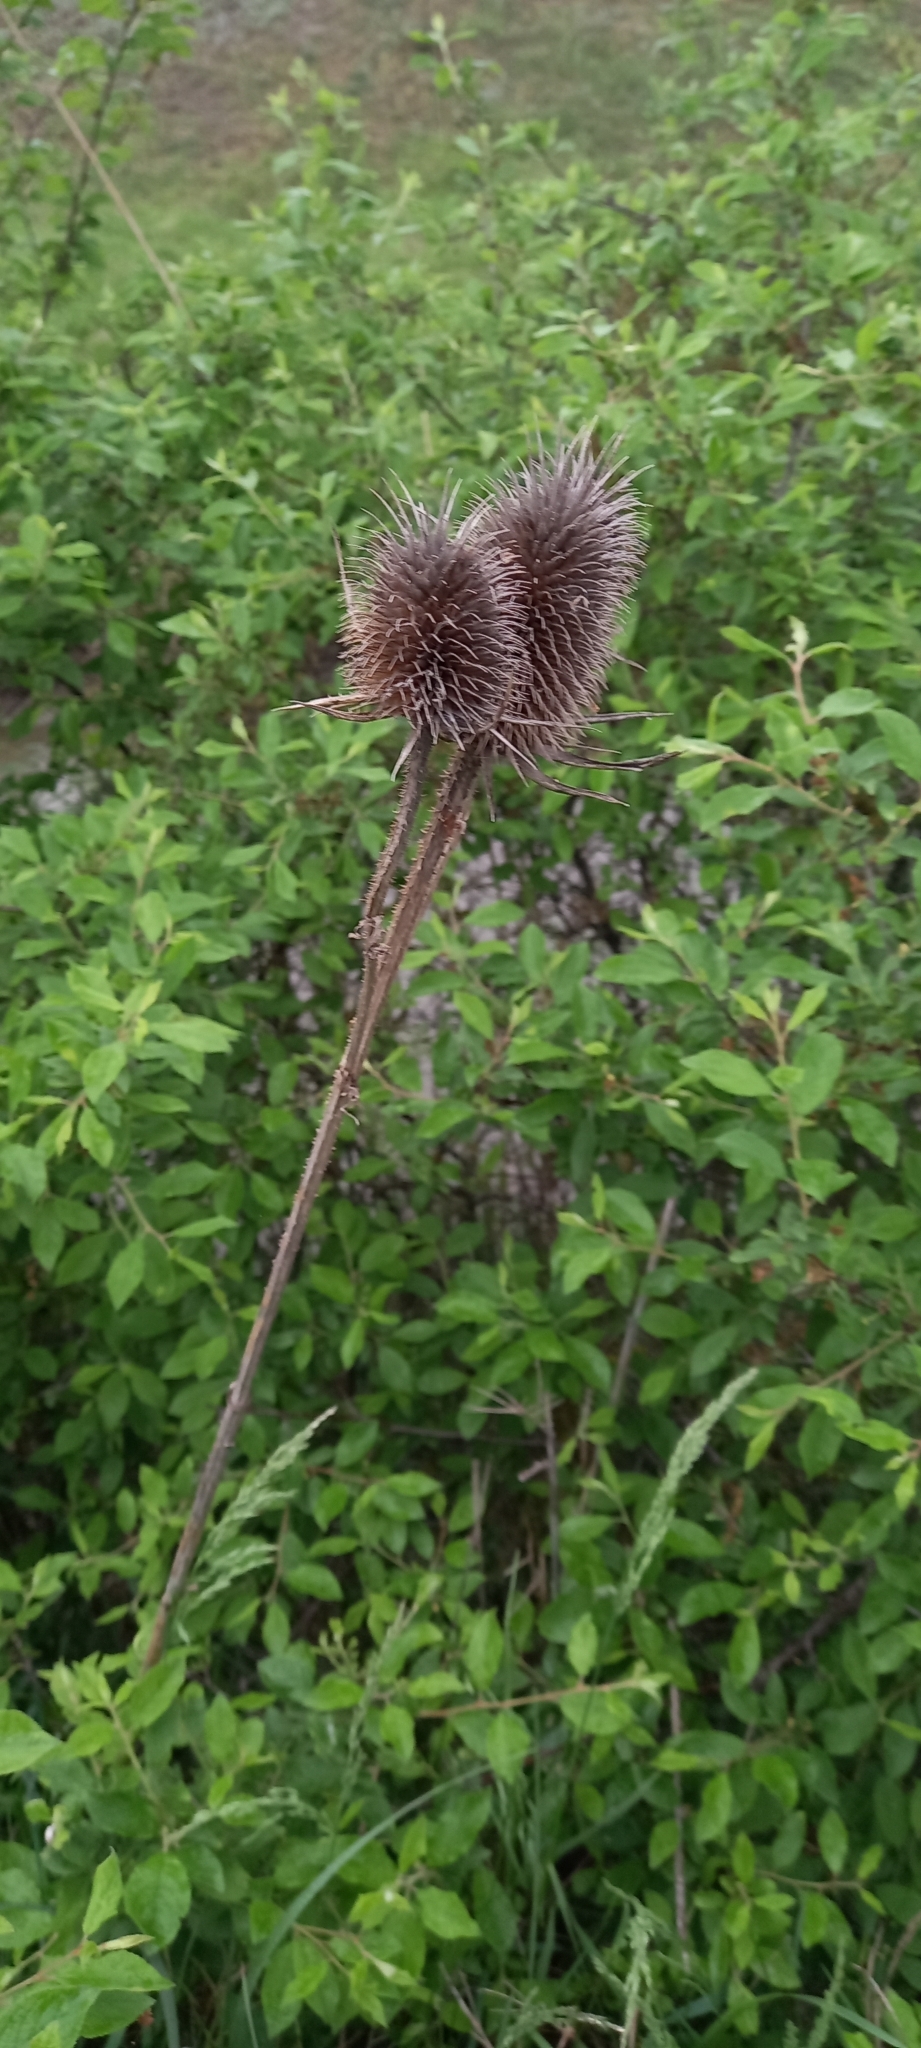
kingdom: Plantae
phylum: Tracheophyta
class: Magnoliopsida
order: Dipsacales
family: Caprifoliaceae
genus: Dipsacus
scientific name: Dipsacus laciniatus
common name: Cut-leaved teasel
